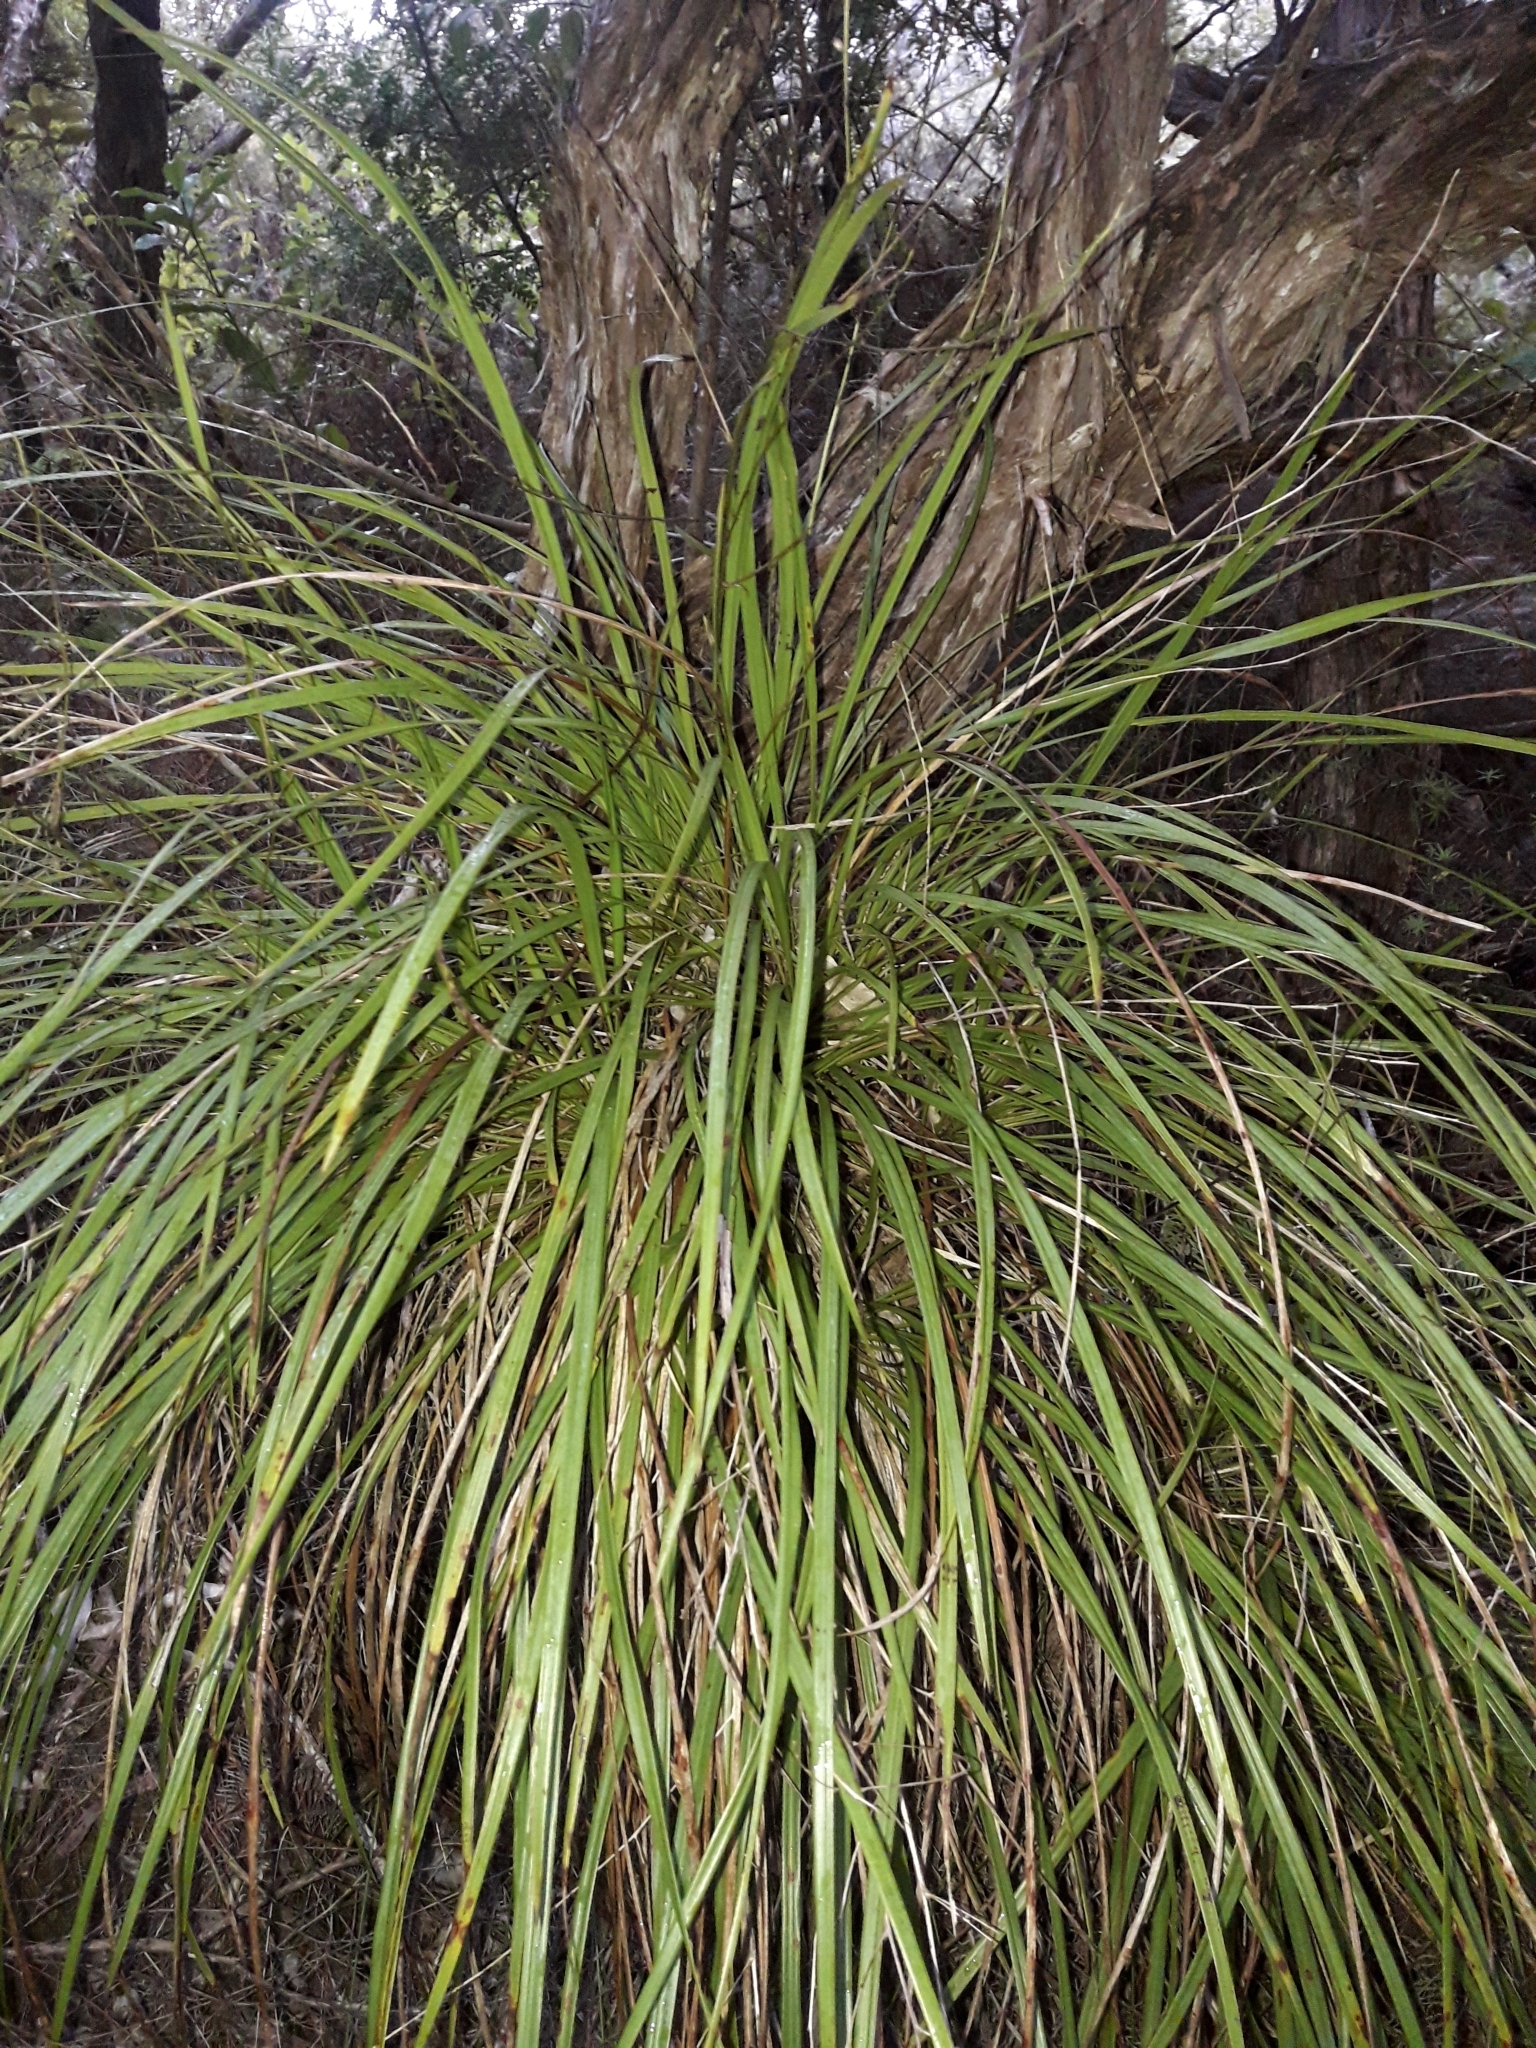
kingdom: Plantae
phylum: Tracheophyta
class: Liliopsida
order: Asparagales
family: Asparagaceae
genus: Cordyline
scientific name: Cordyline pumilio
